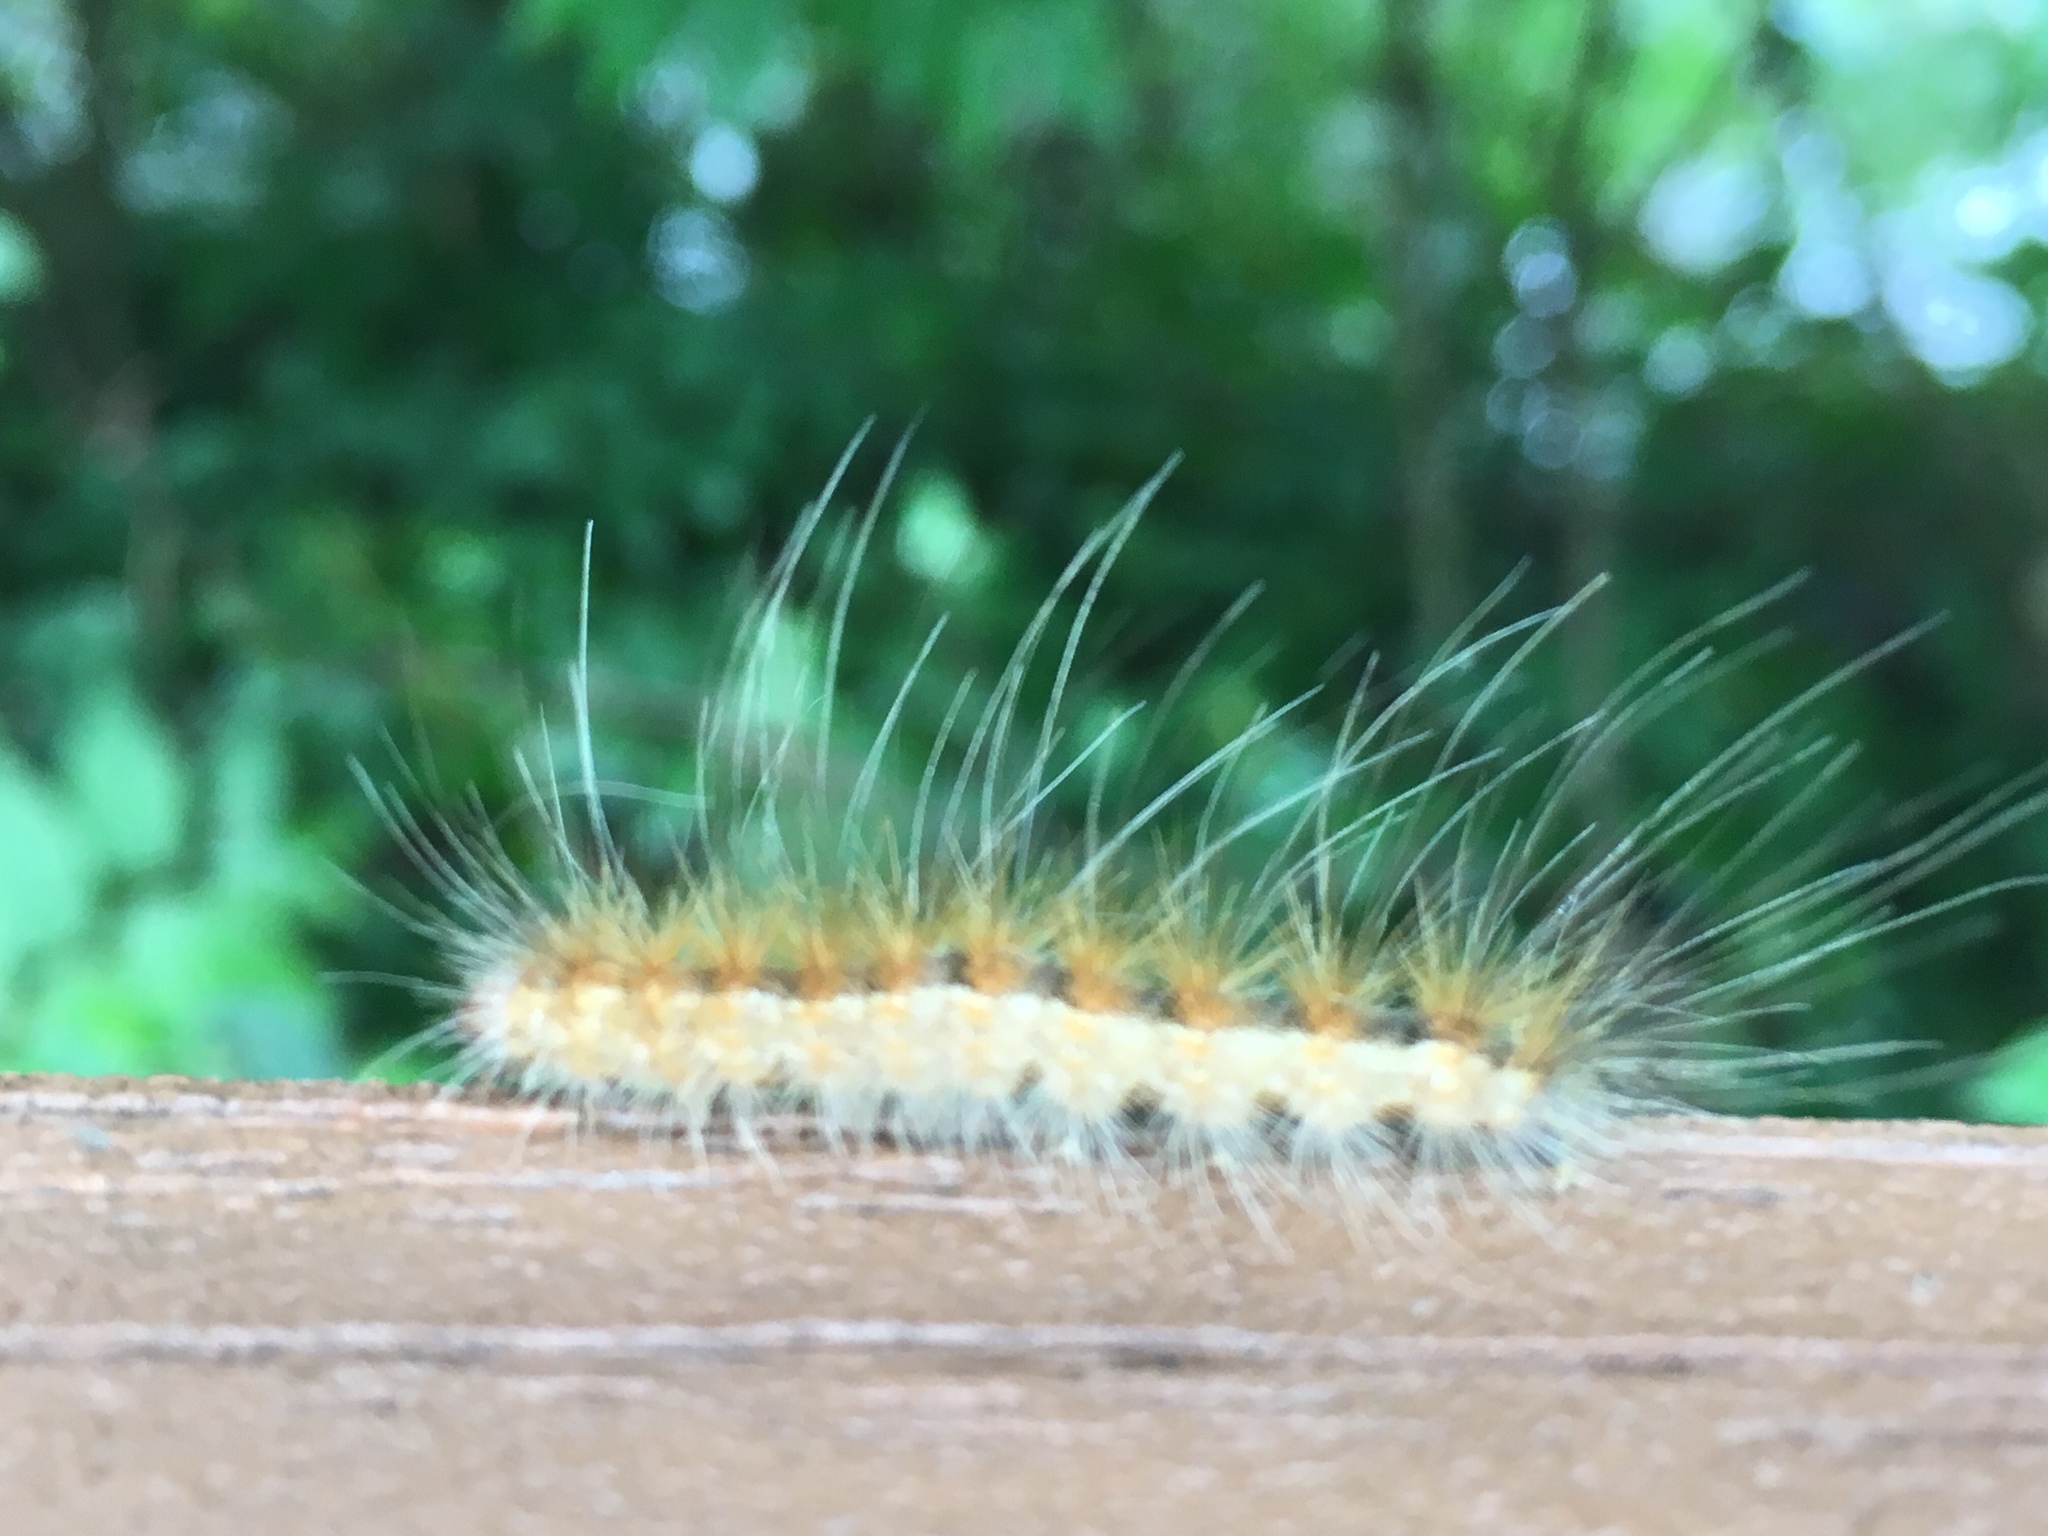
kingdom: Animalia
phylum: Arthropoda
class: Insecta
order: Lepidoptera
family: Erebidae
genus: Hyphantria
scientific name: Hyphantria cunea
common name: American white moth
